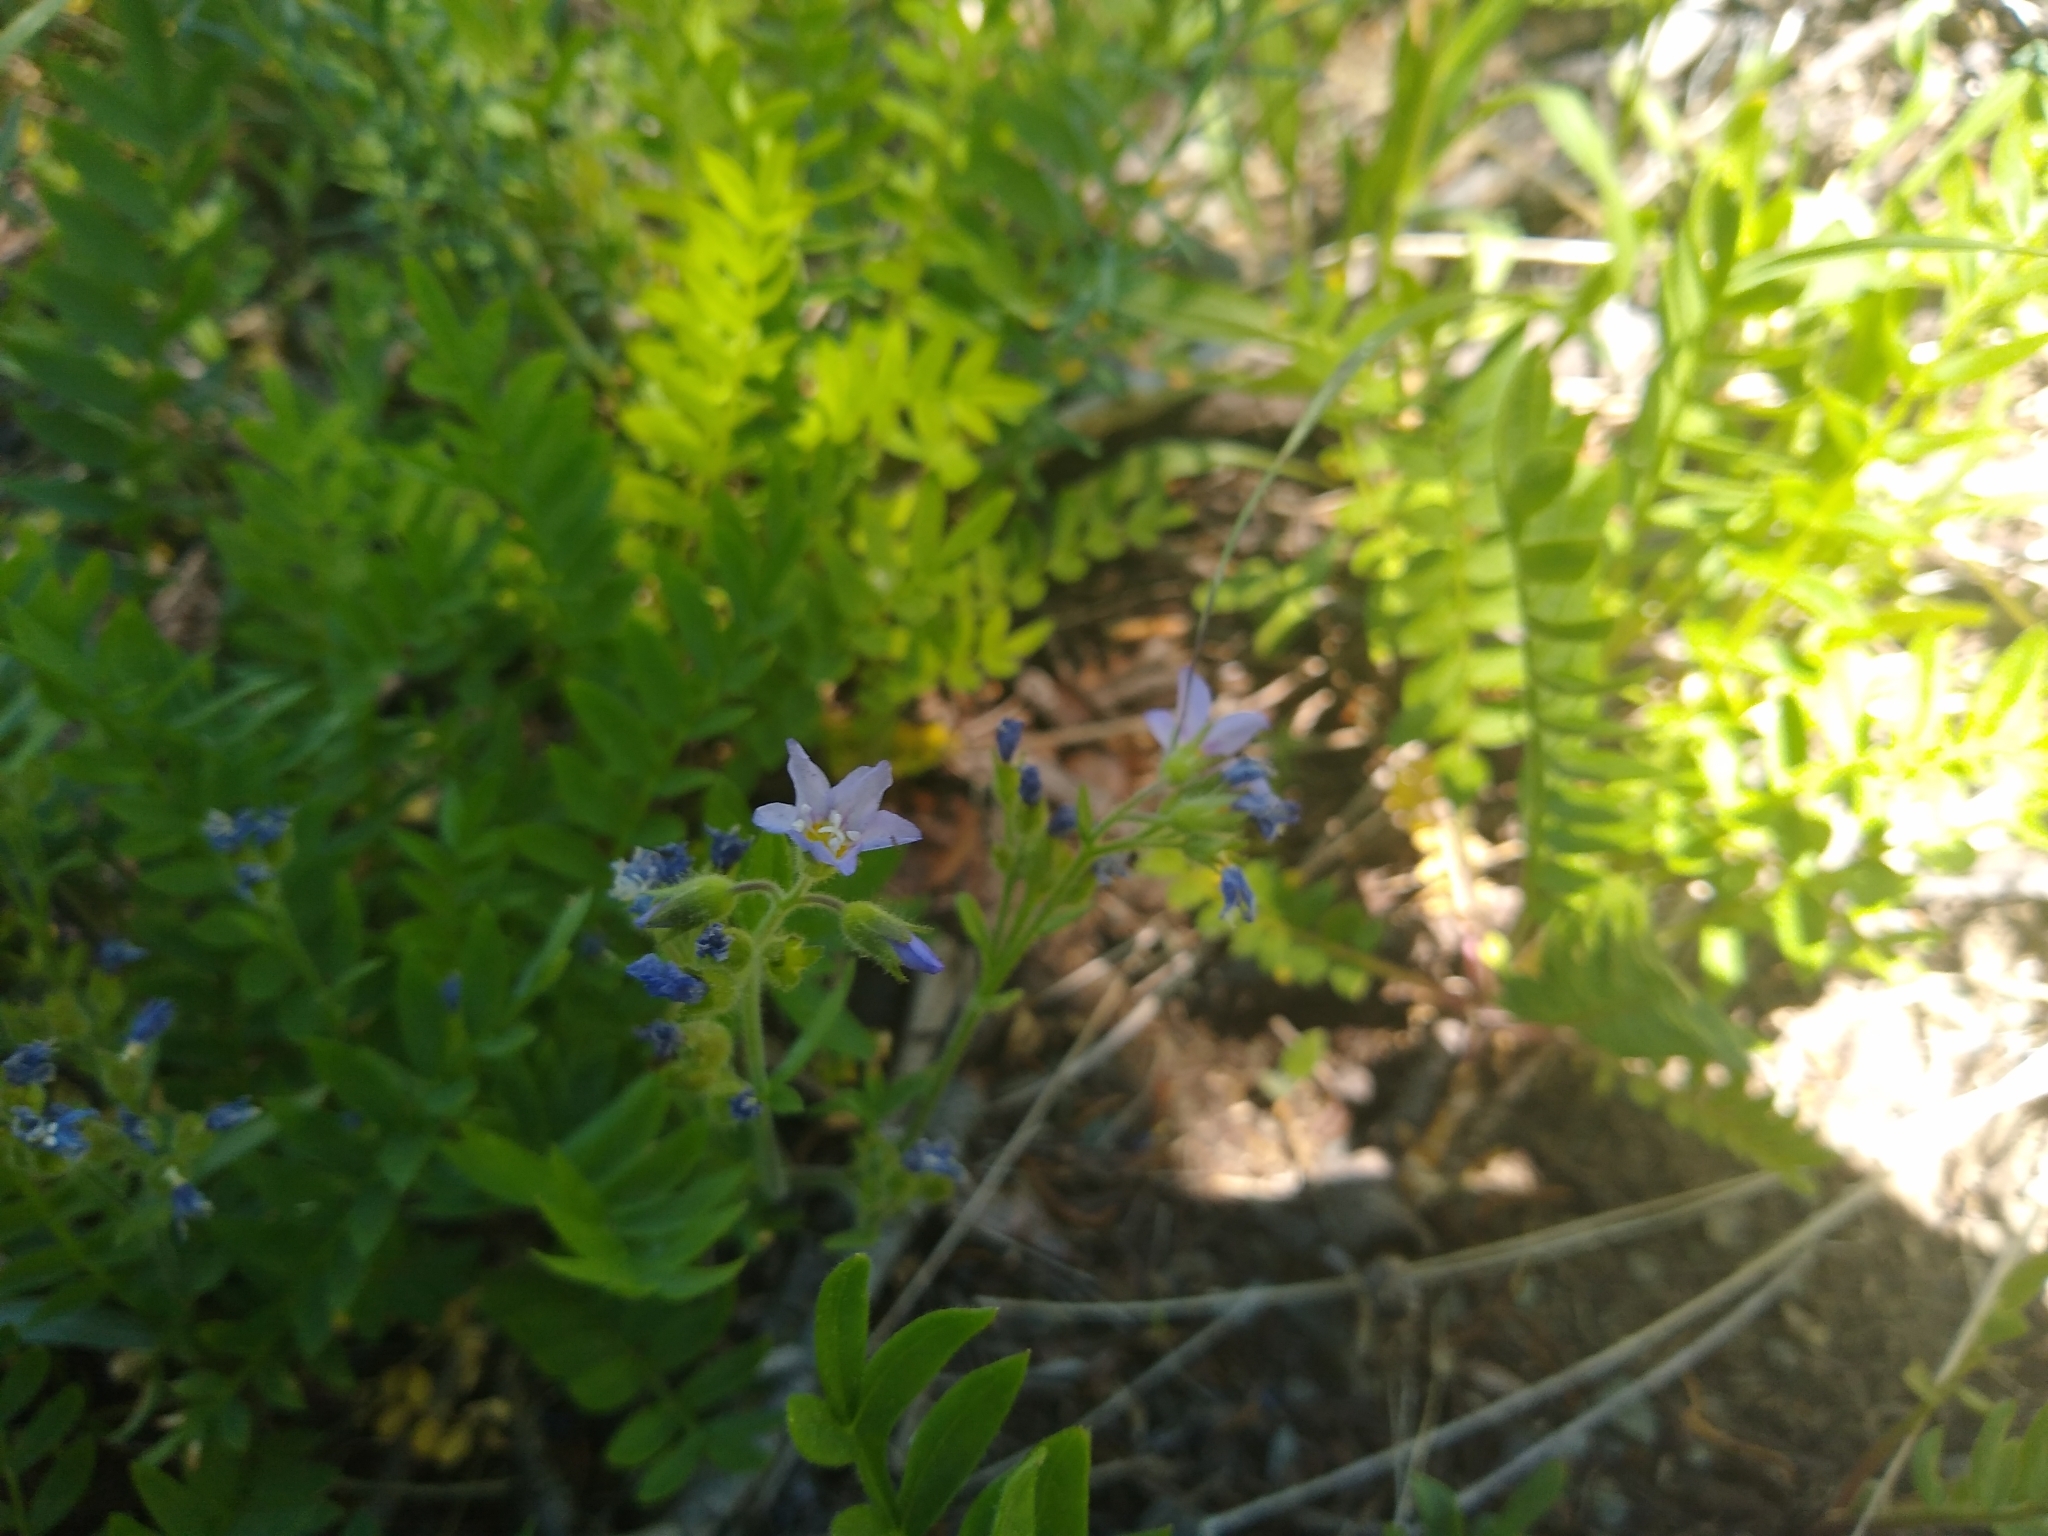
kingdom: Plantae
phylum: Tracheophyta
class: Magnoliopsida
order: Ericales
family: Polemoniaceae
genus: Polemonium
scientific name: Polemonium californicum
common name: California jacob's ladder
